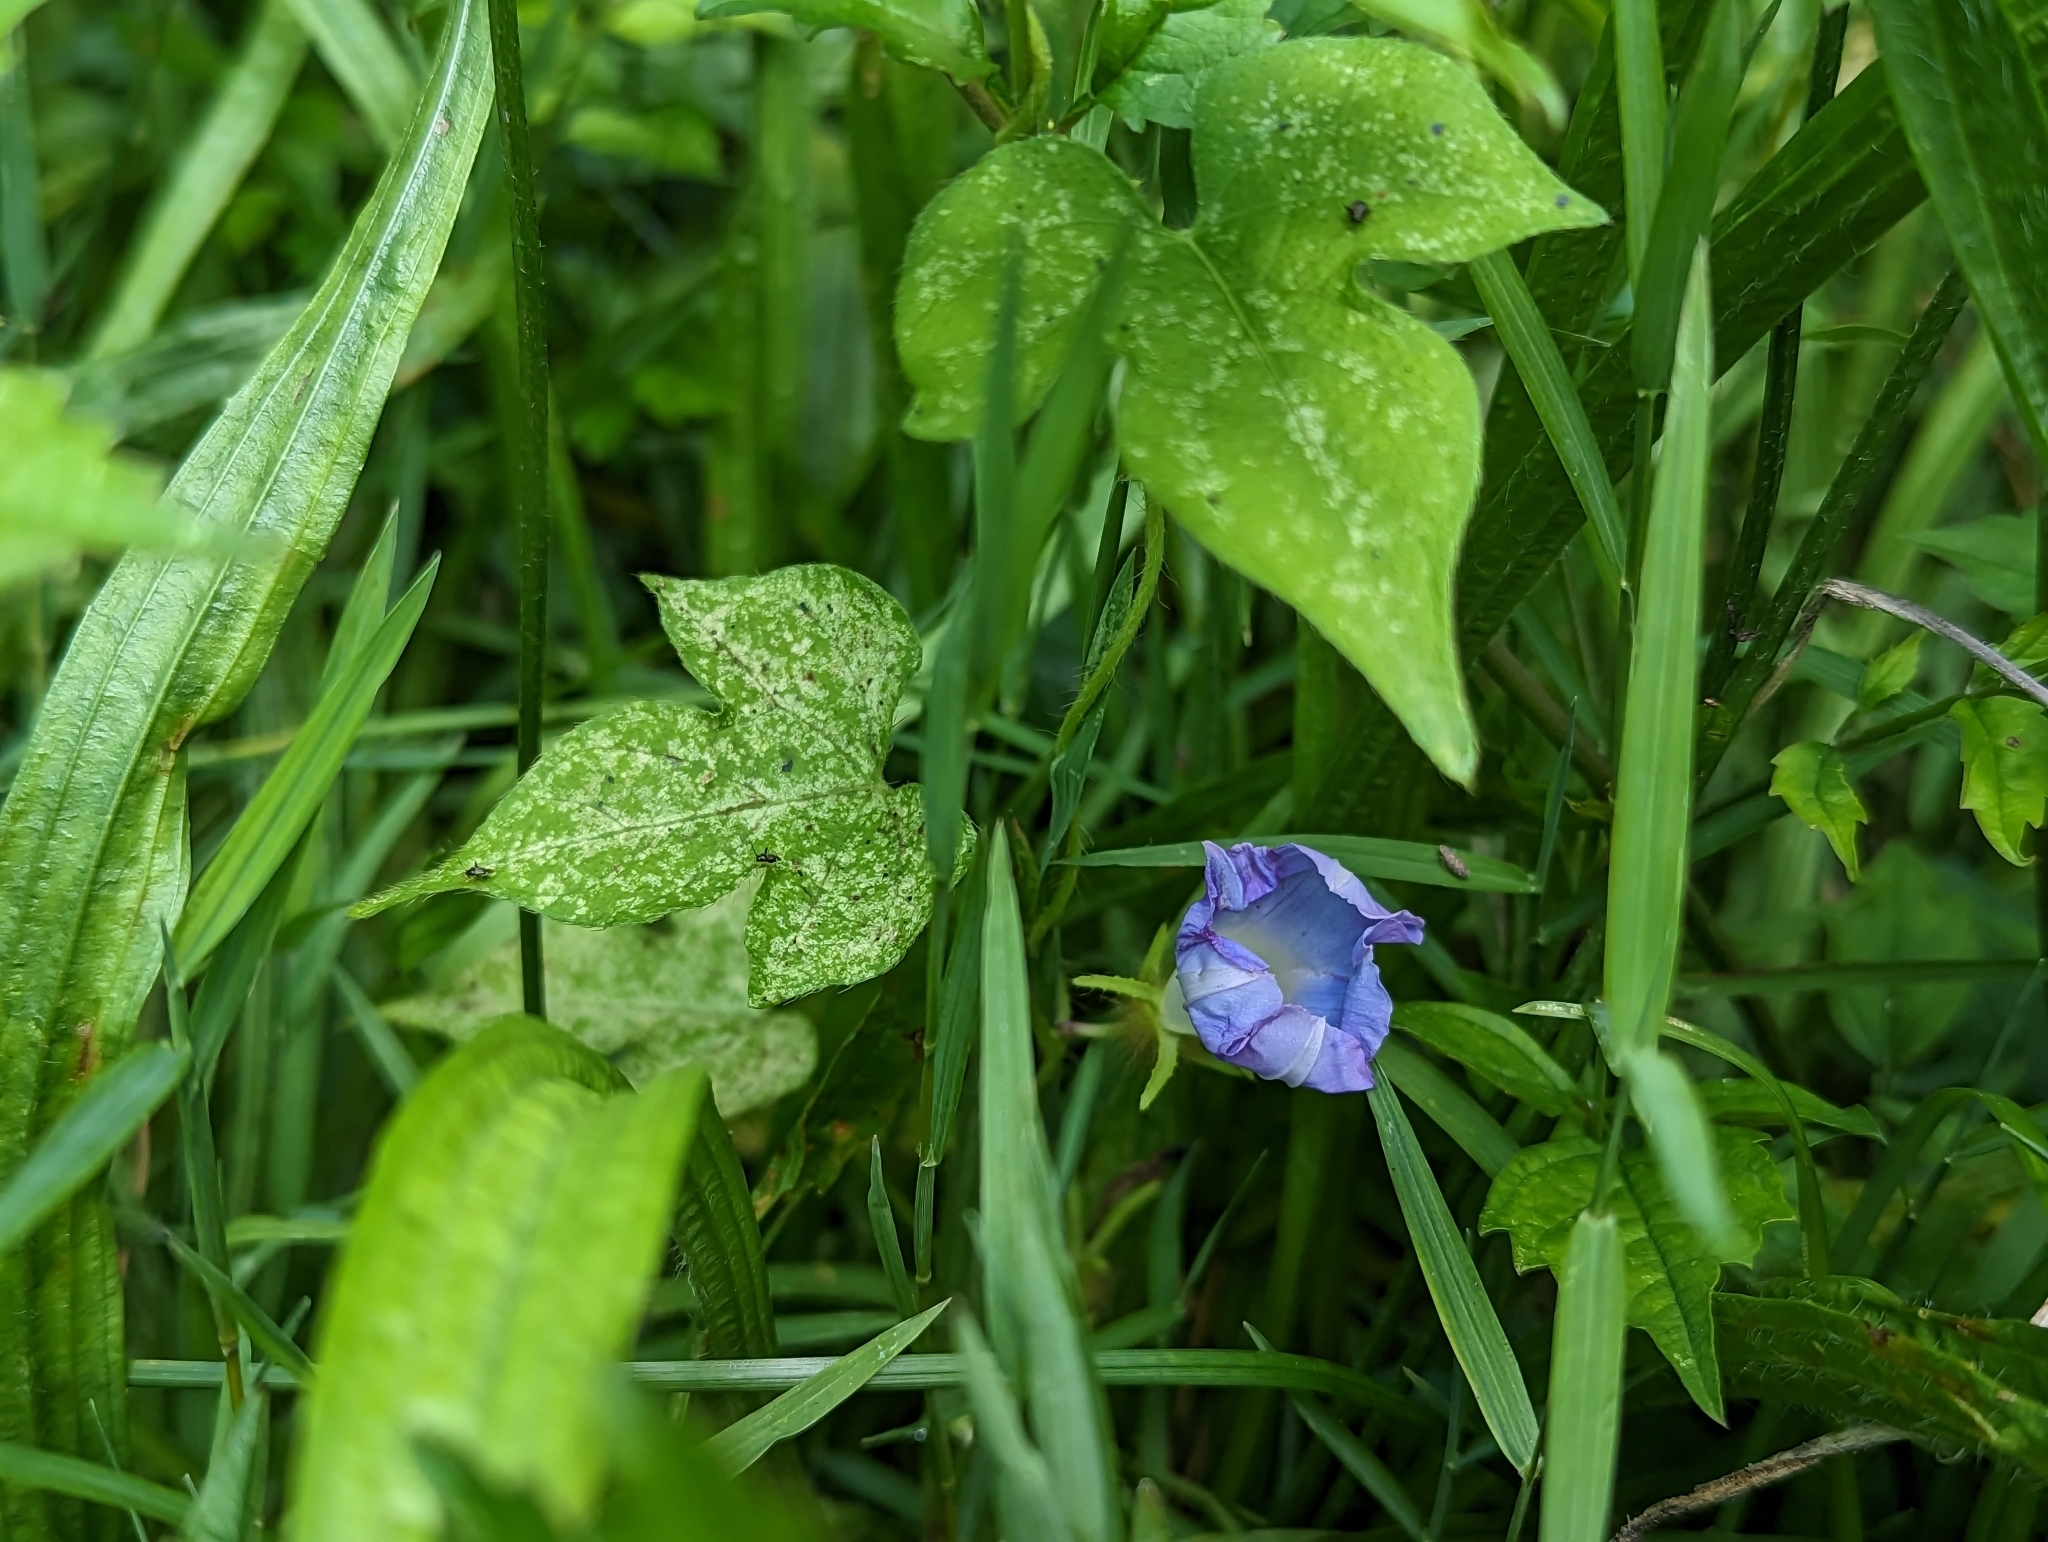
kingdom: Plantae
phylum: Tracheophyta
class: Magnoliopsida
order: Solanales
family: Convolvulaceae
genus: Ipomoea
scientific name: Ipomoea hederacea
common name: Ivy-leaved morning-glory
